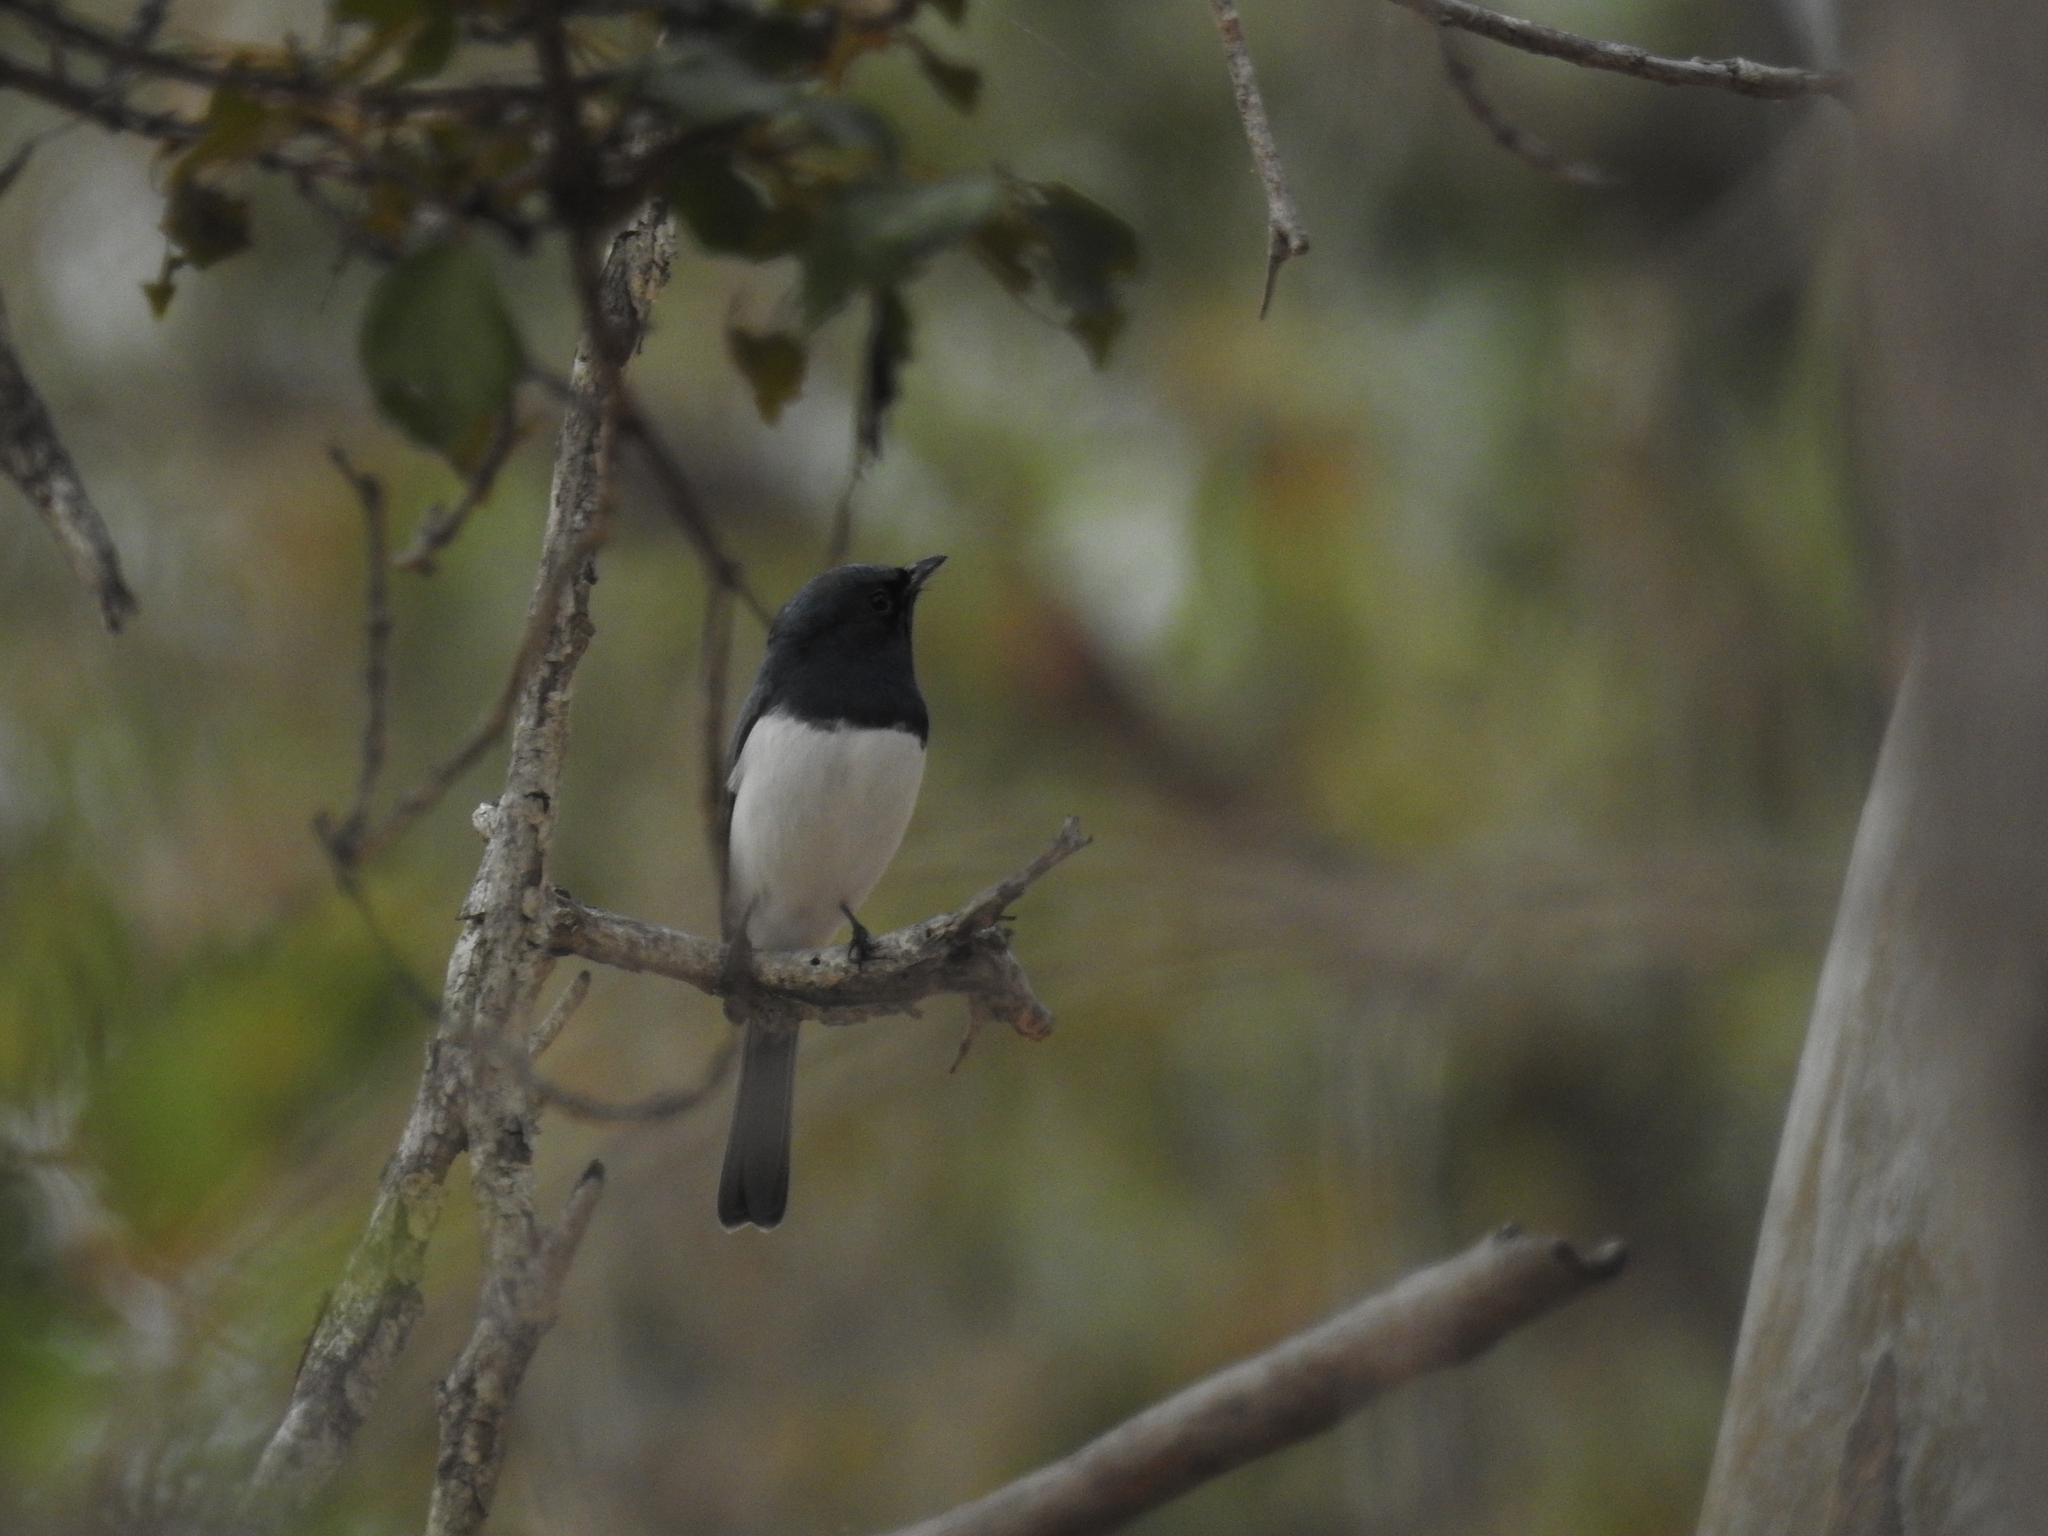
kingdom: Animalia
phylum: Chordata
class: Aves
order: Passeriformes
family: Monarchidae
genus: Myiagra
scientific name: Myiagra rubecula
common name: Leaden flycatcher
